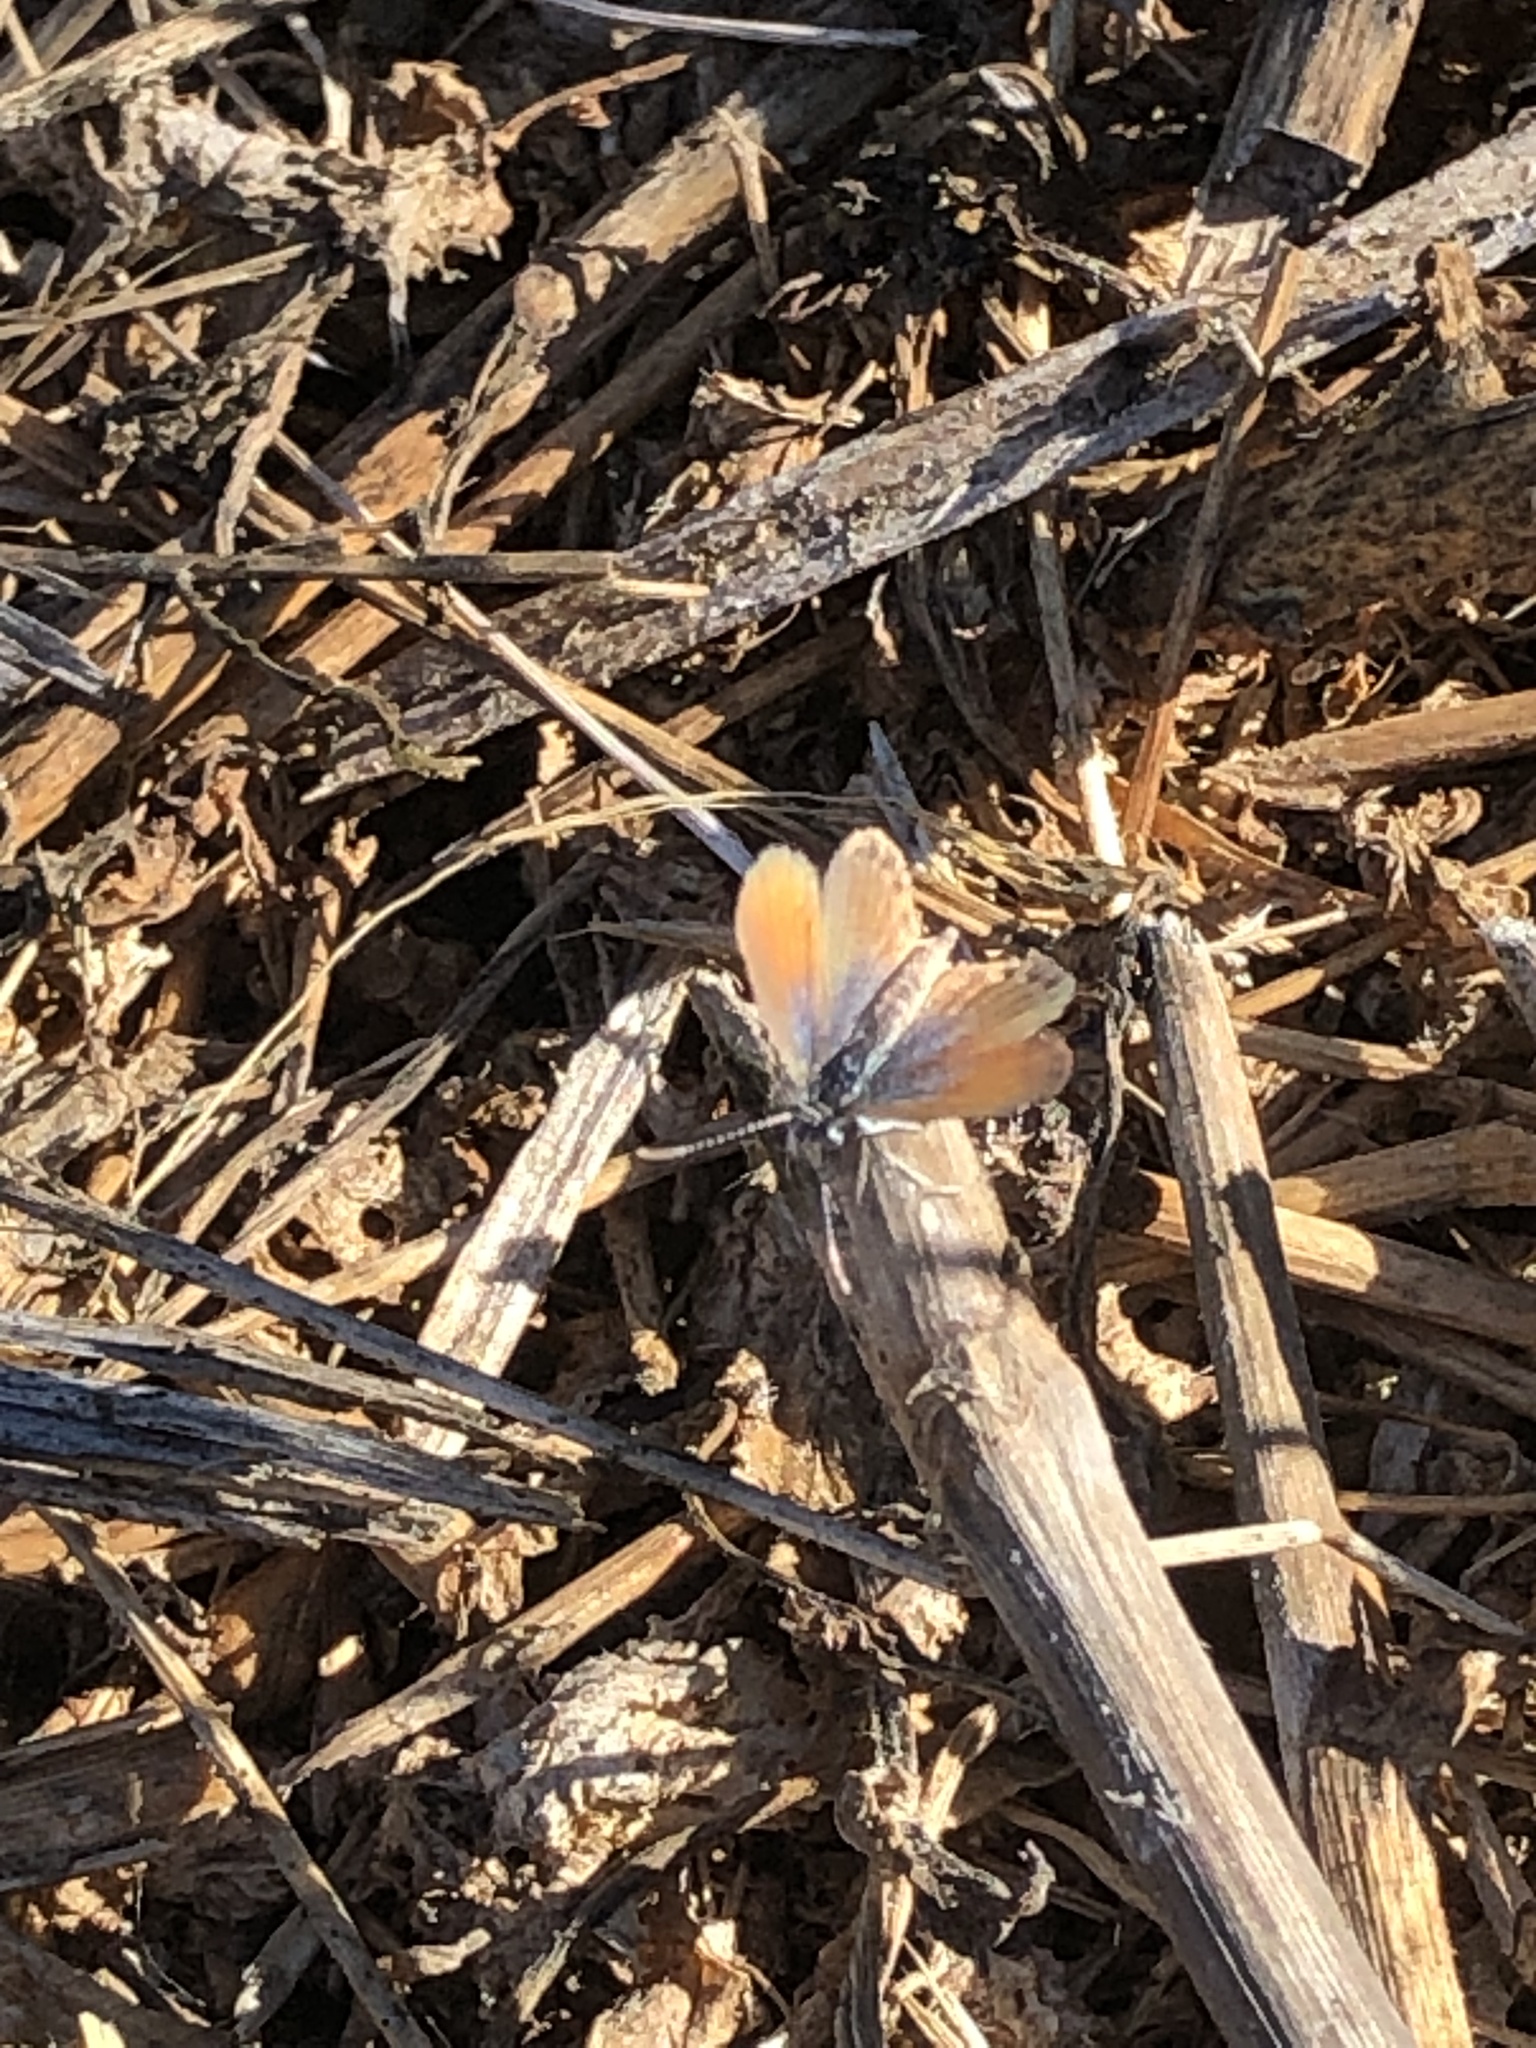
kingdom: Animalia
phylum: Arthropoda
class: Insecta
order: Lepidoptera
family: Lycaenidae
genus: Brephidium
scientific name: Brephidium exilis
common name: Pygmy blue
